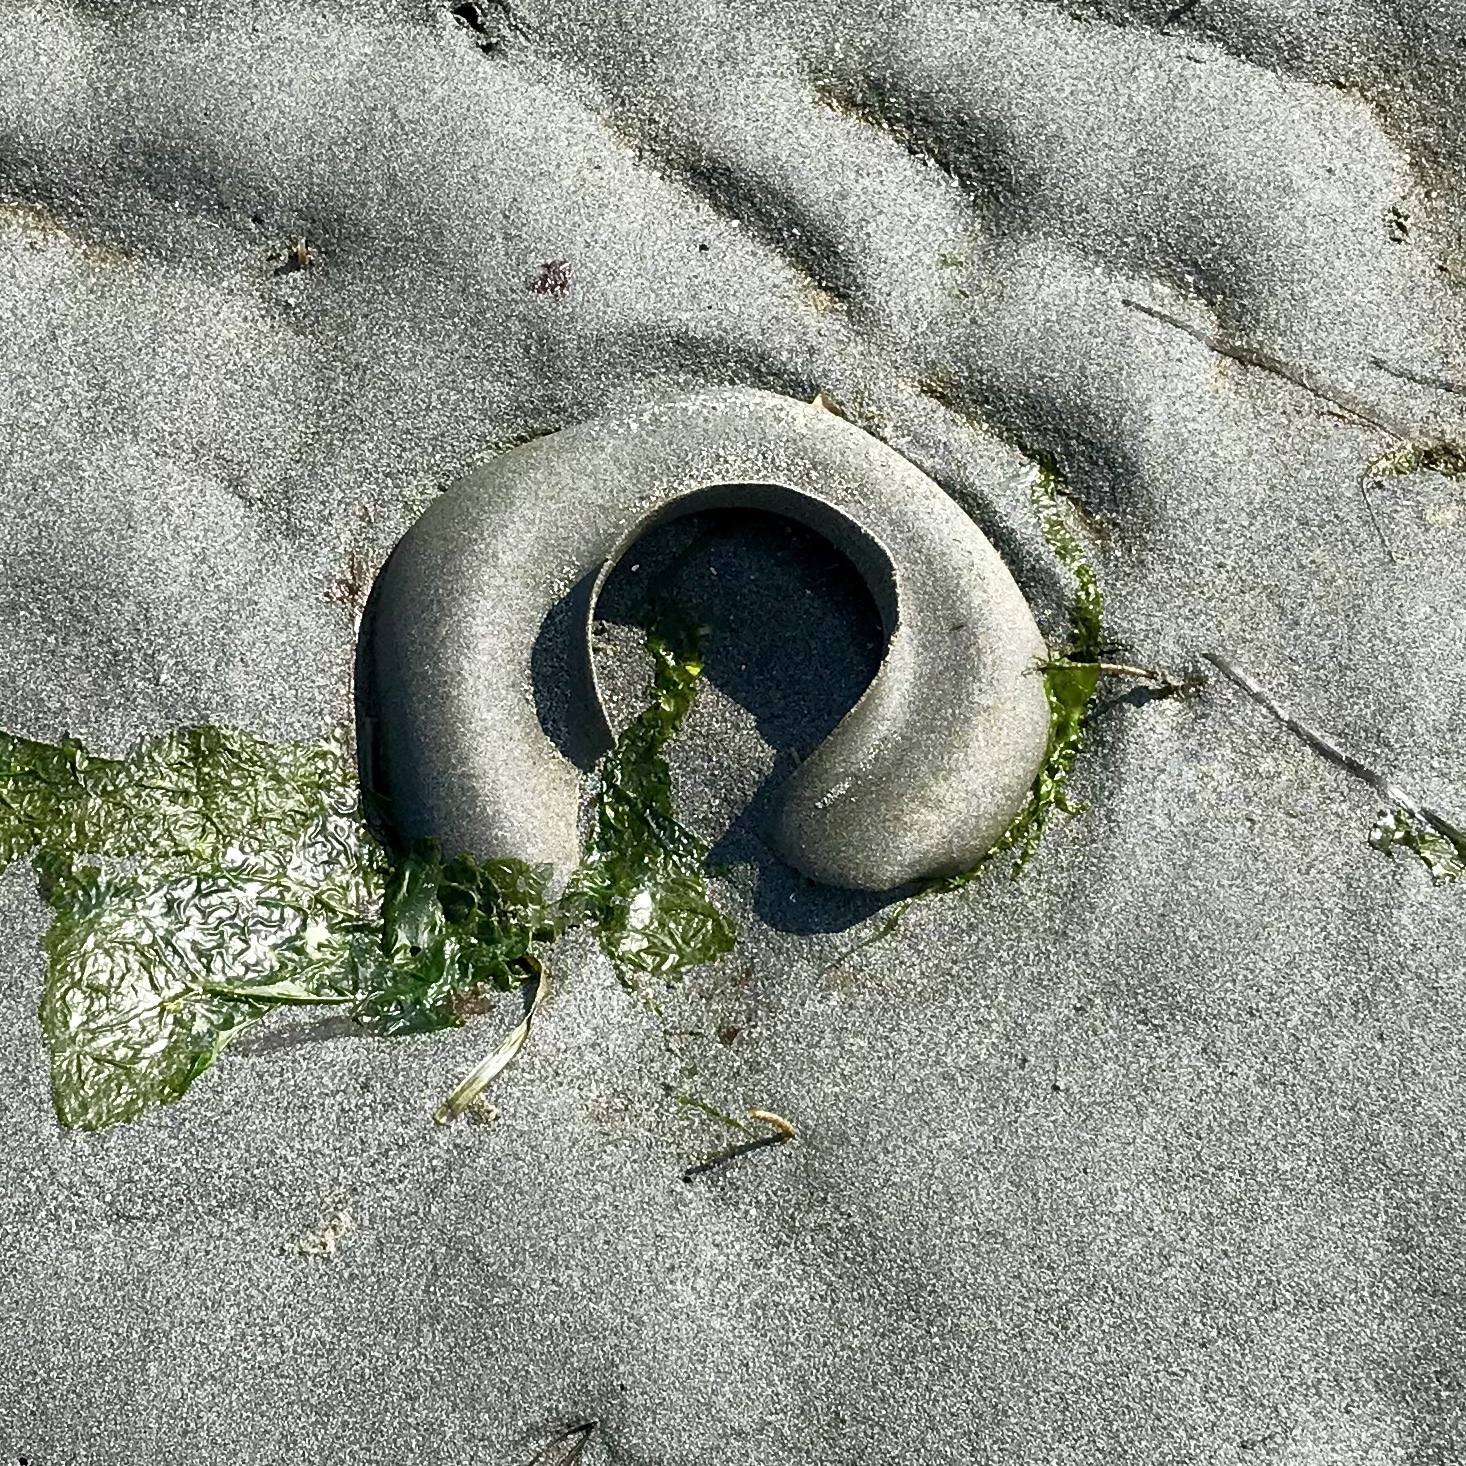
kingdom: Animalia
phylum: Mollusca
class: Gastropoda
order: Littorinimorpha
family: Naticidae
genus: Neverita
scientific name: Neverita lewisii
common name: Lewis' moonsnail
